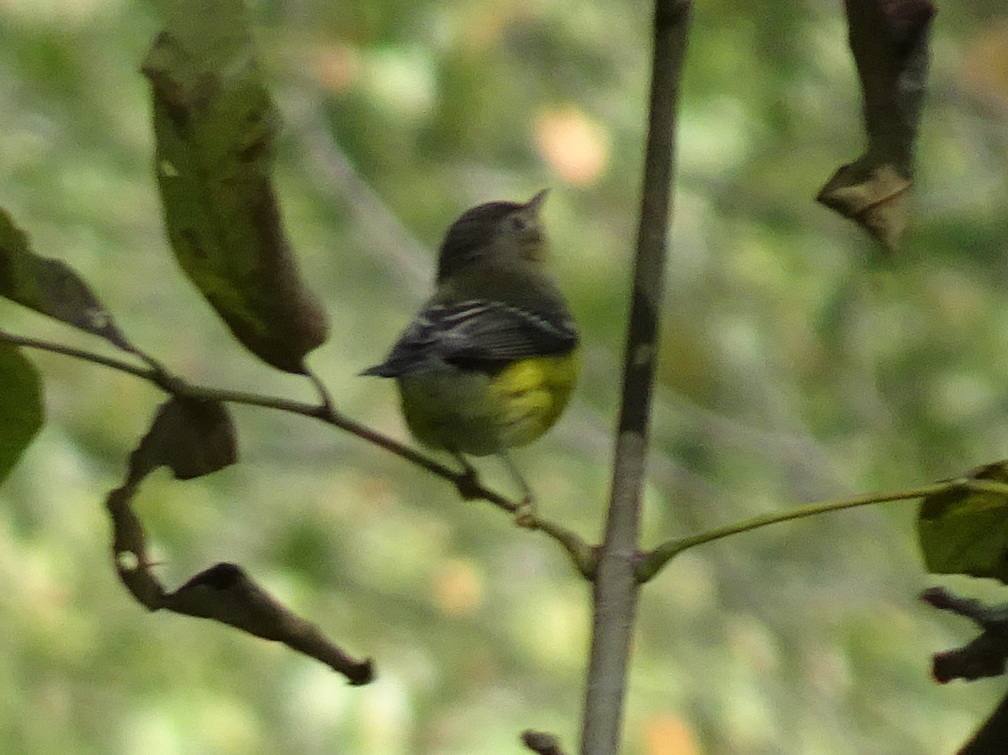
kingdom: Animalia
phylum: Chordata
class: Aves
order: Passeriformes
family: Parulidae
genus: Setophaga
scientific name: Setophaga magnolia
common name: Magnolia warbler
